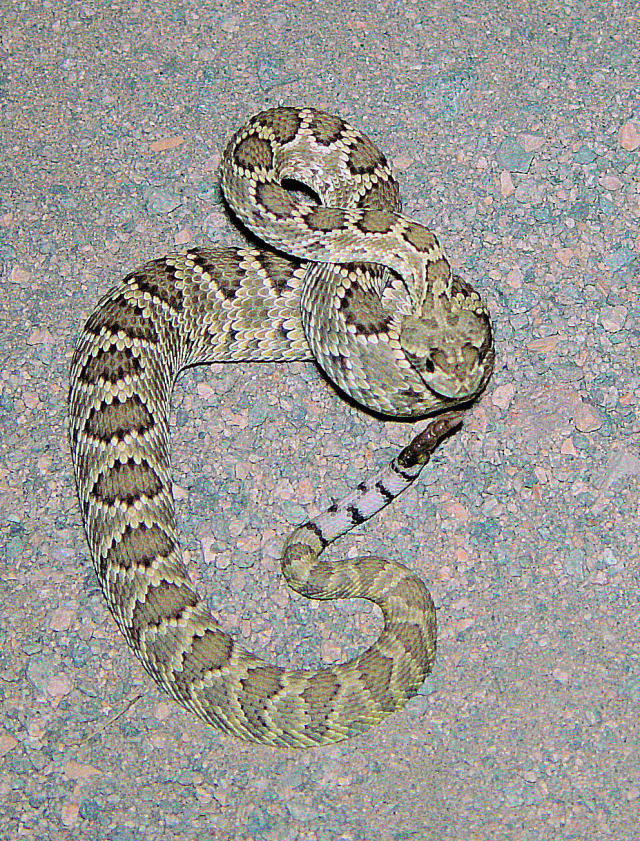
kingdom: Animalia
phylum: Chordata
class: Squamata
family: Viperidae
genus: Crotalus
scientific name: Crotalus scutulatus
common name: Scutulatus
